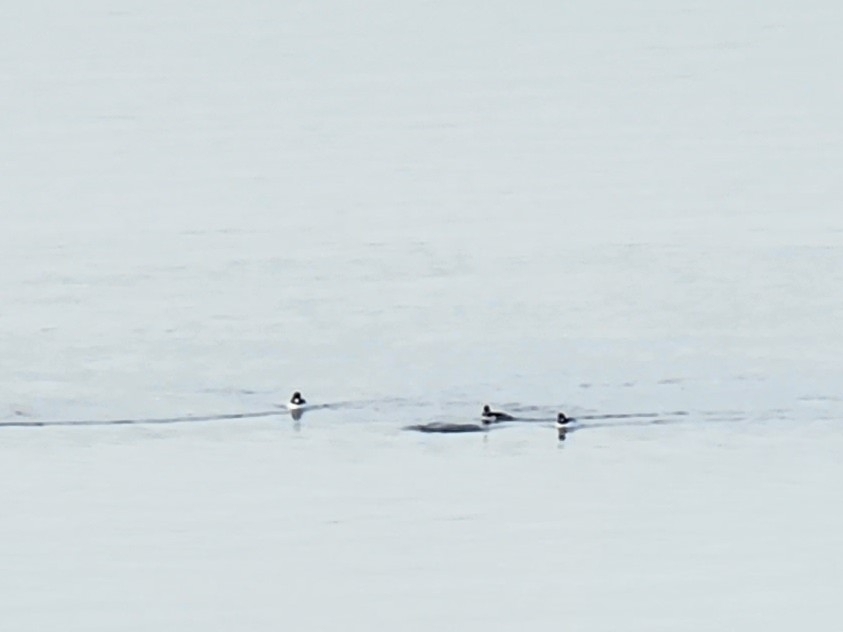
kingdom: Animalia
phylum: Chordata
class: Aves
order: Anseriformes
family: Anatidae
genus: Bucephala
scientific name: Bucephala clangula
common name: Common goldeneye
